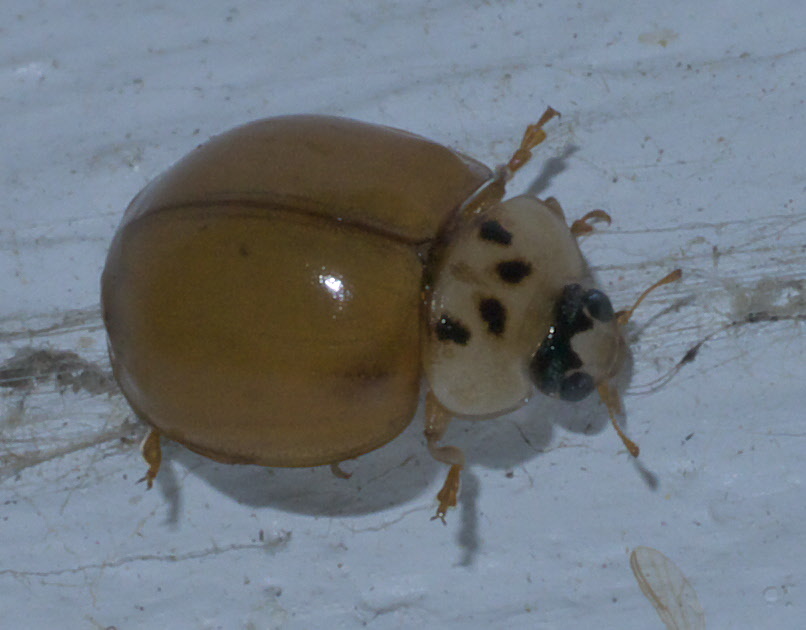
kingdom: Animalia
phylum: Arthropoda
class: Insecta
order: Coleoptera
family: Coccinellidae
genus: Harmonia
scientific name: Harmonia axyridis
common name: Harlequin ladybird
